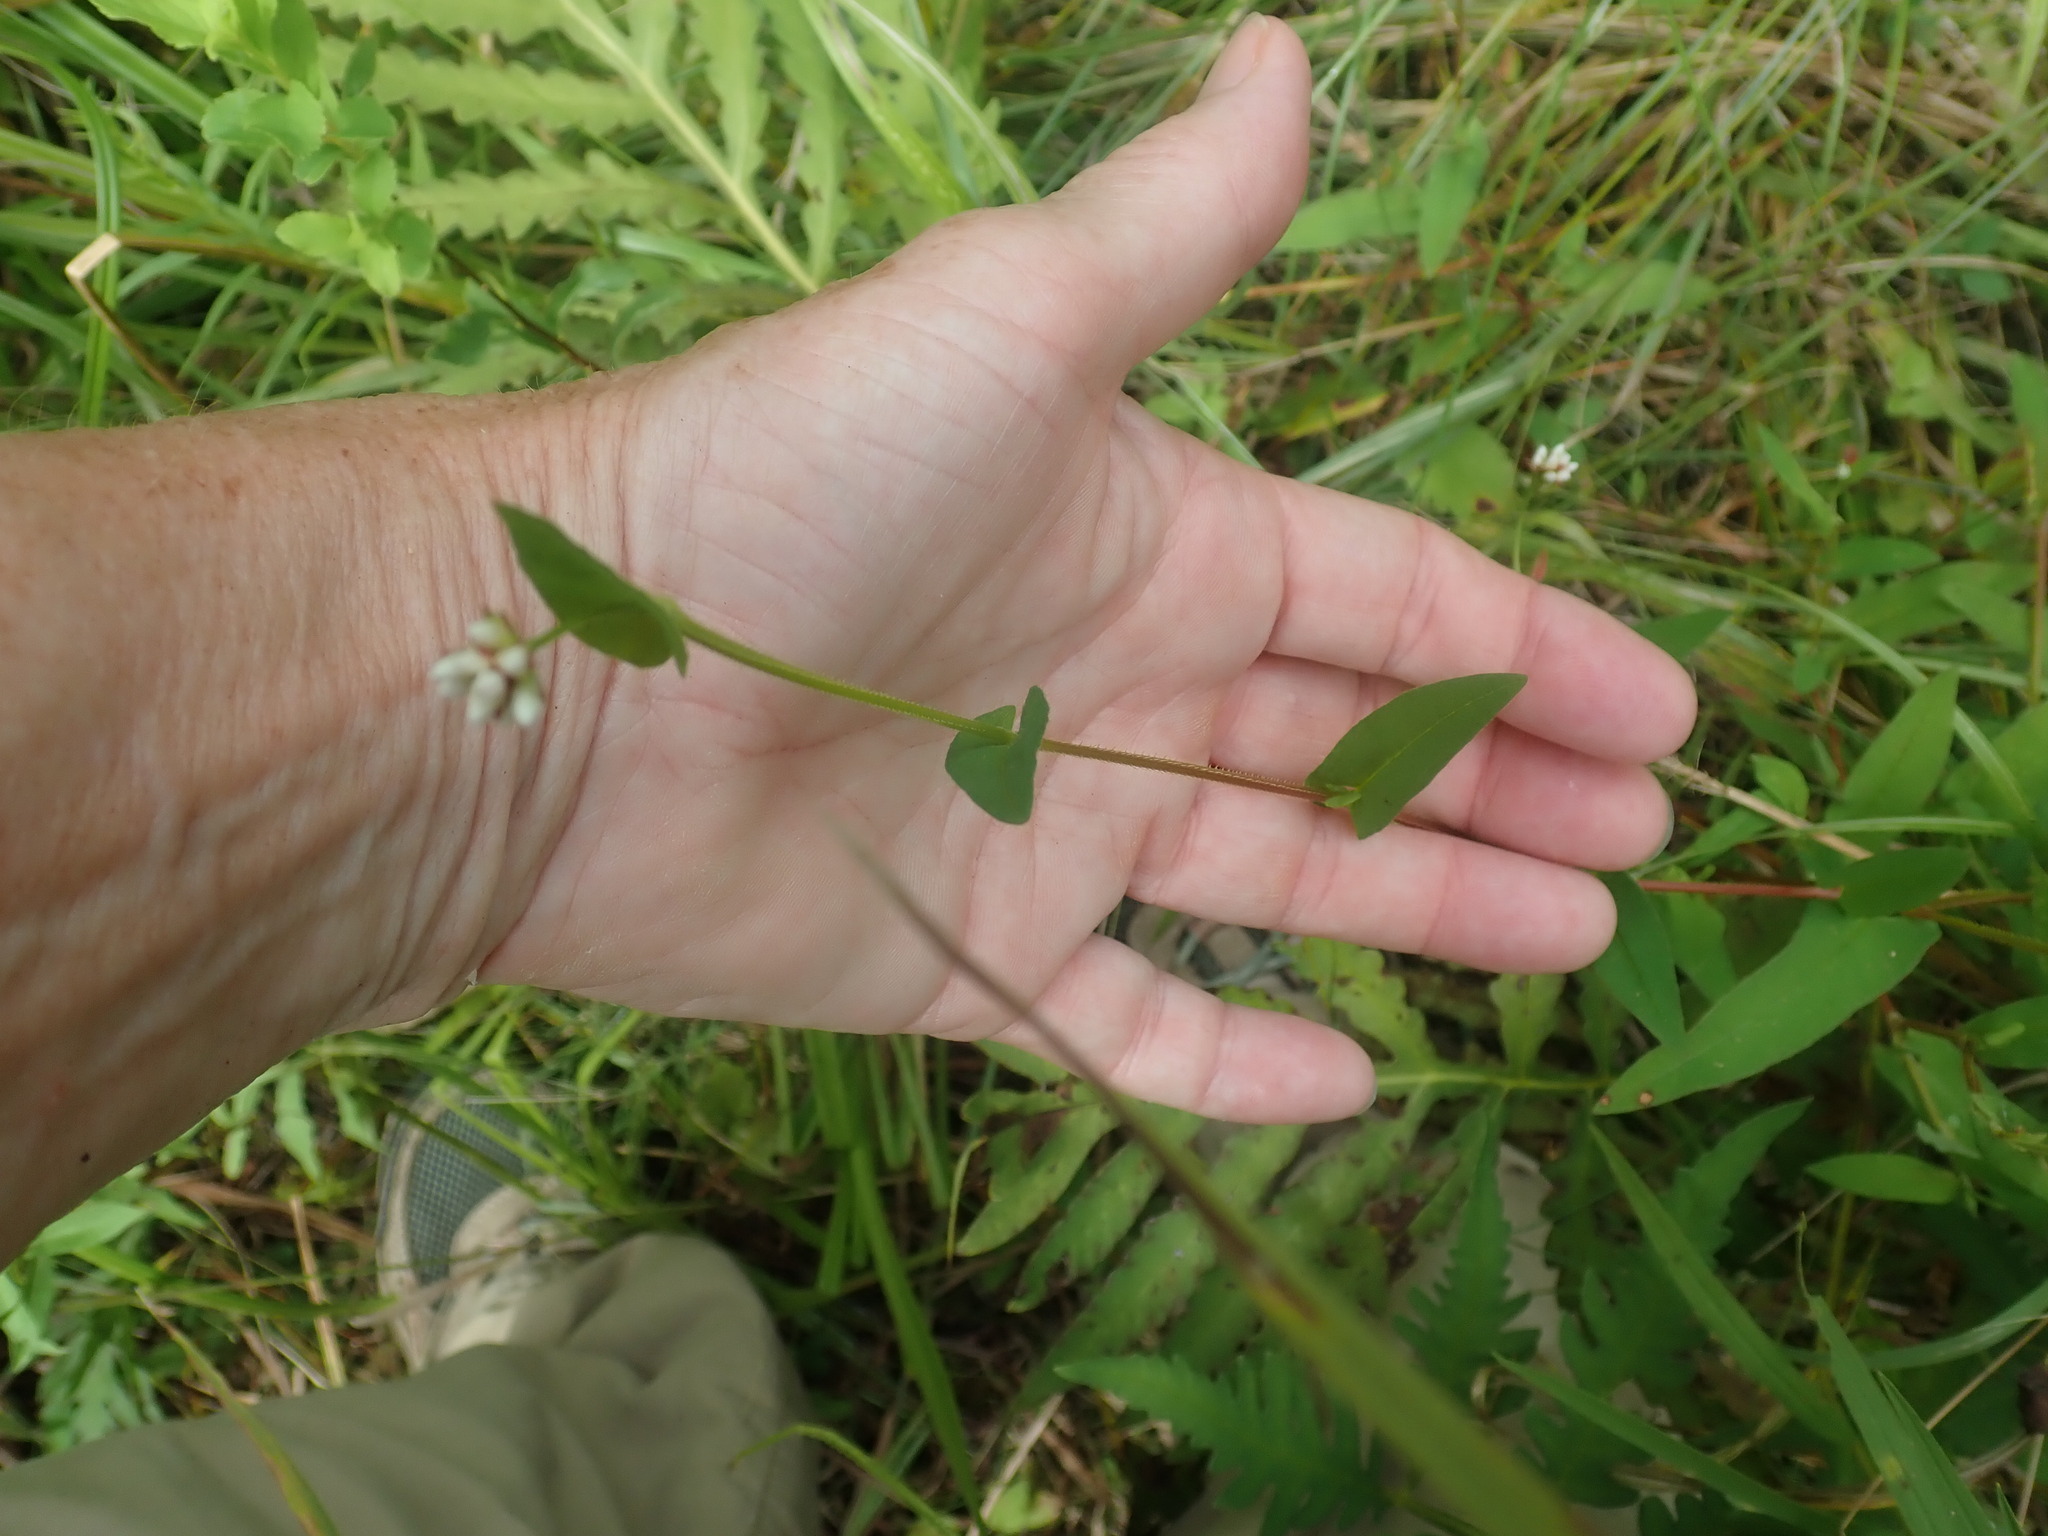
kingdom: Plantae
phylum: Tracheophyta
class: Magnoliopsida
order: Caryophyllales
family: Polygonaceae
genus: Persicaria
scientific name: Persicaria sagittata
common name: American tearthumb
